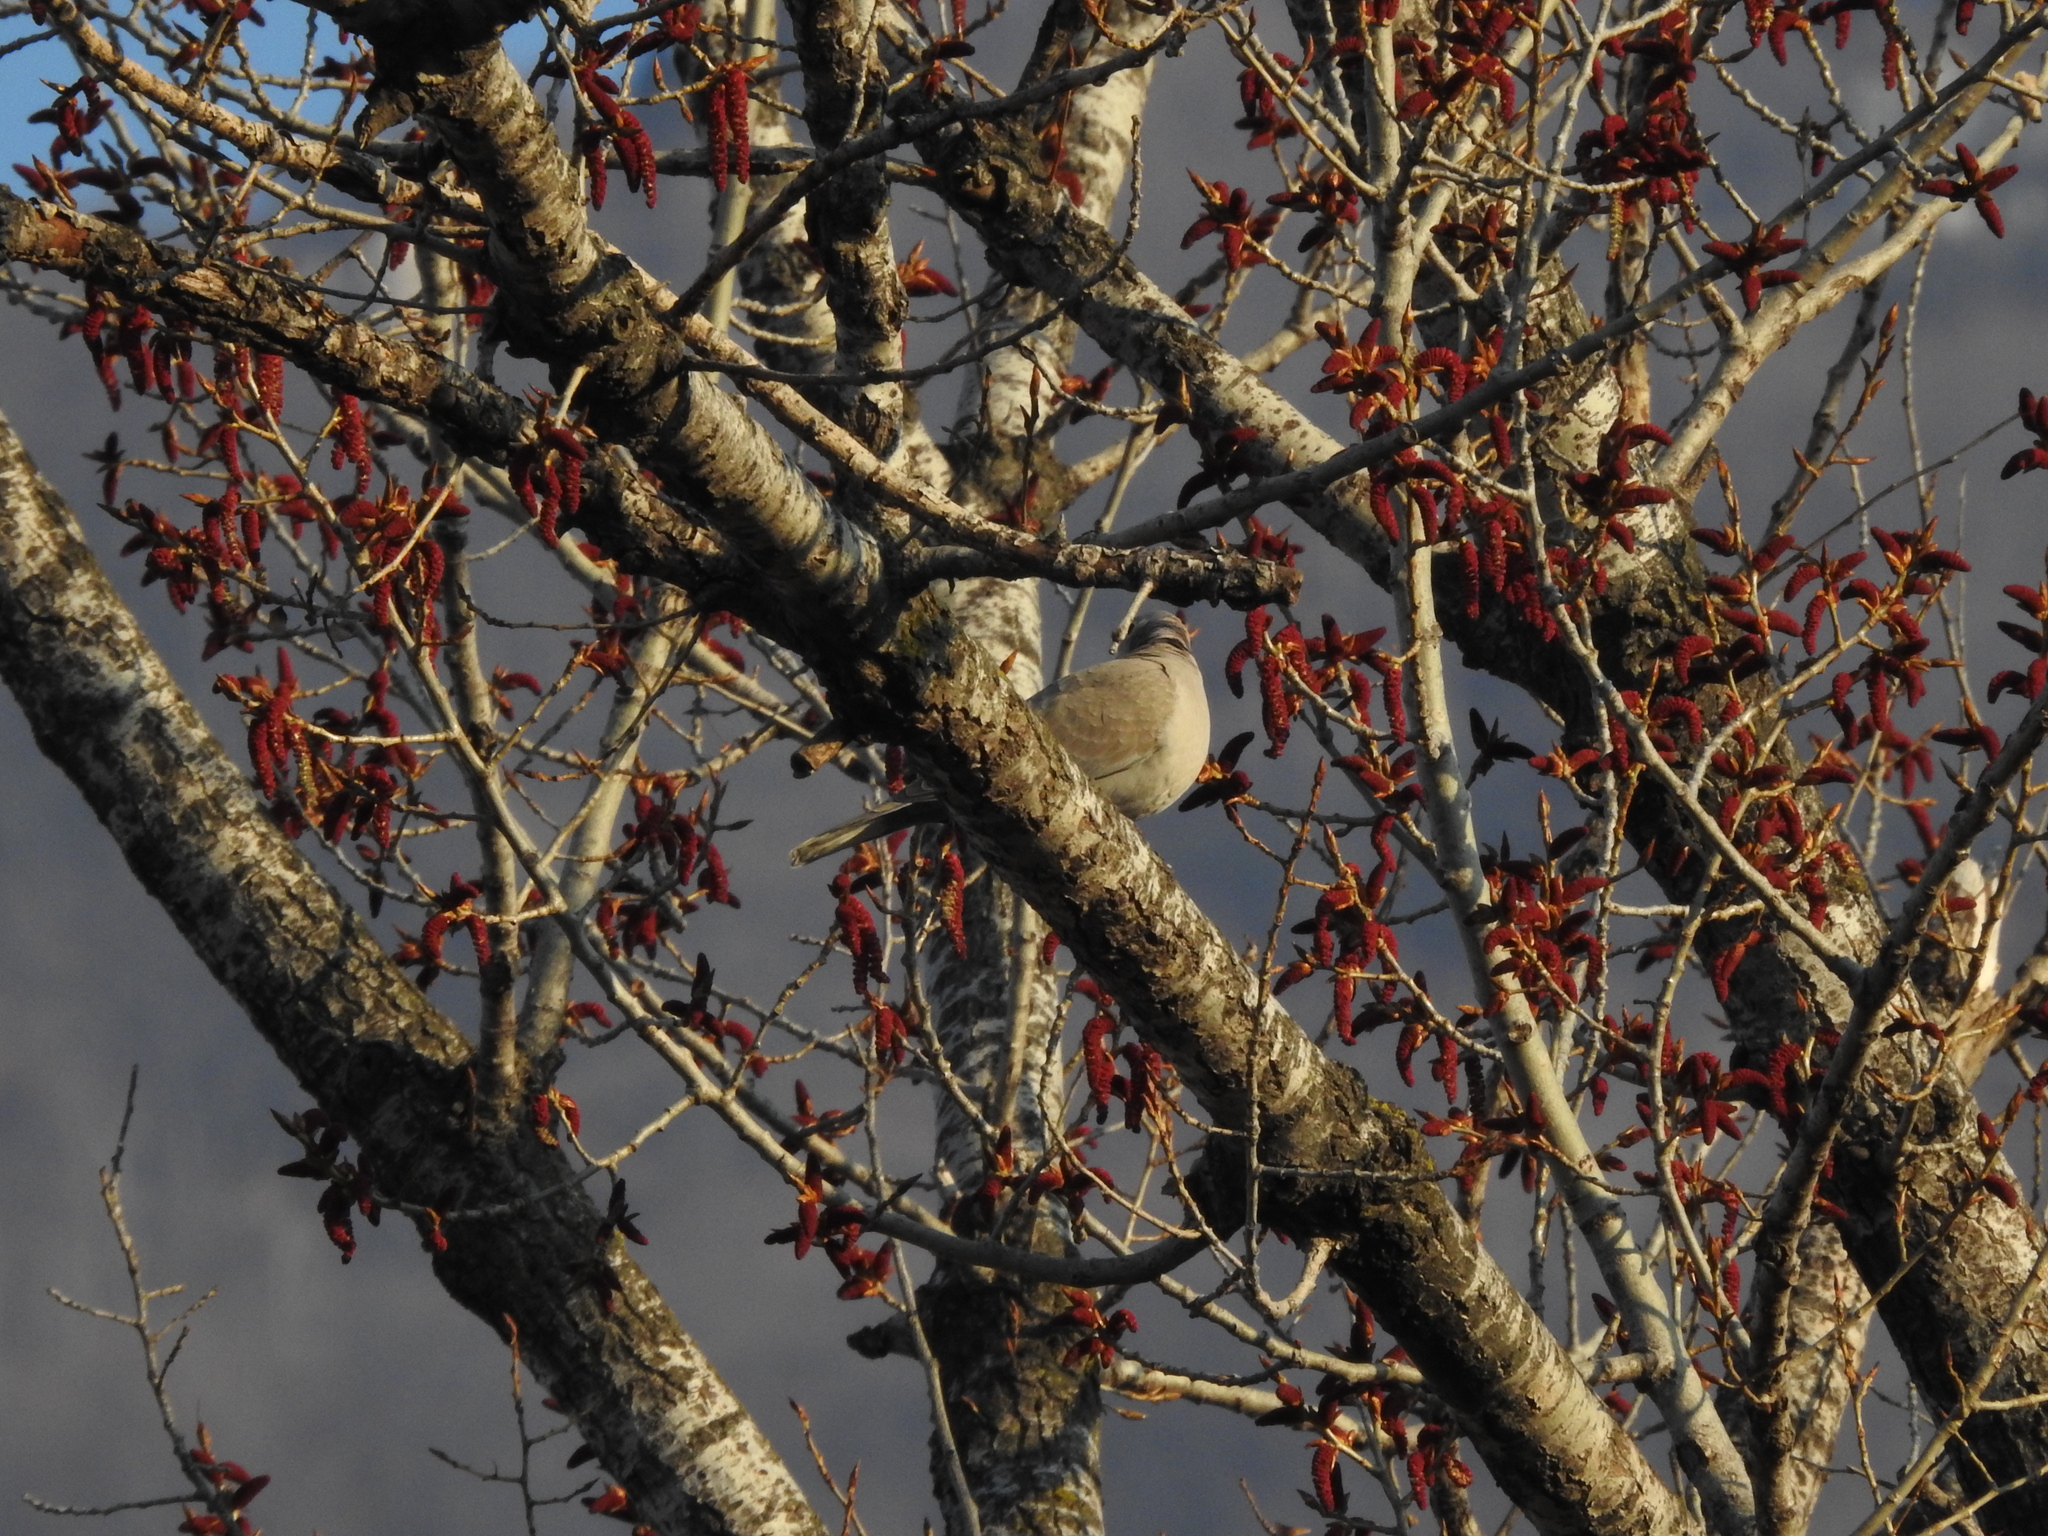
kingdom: Animalia
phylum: Chordata
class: Aves
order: Columbiformes
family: Columbidae
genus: Streptopelia
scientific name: Streptopelia decaocto
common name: Eurasian collared dove
